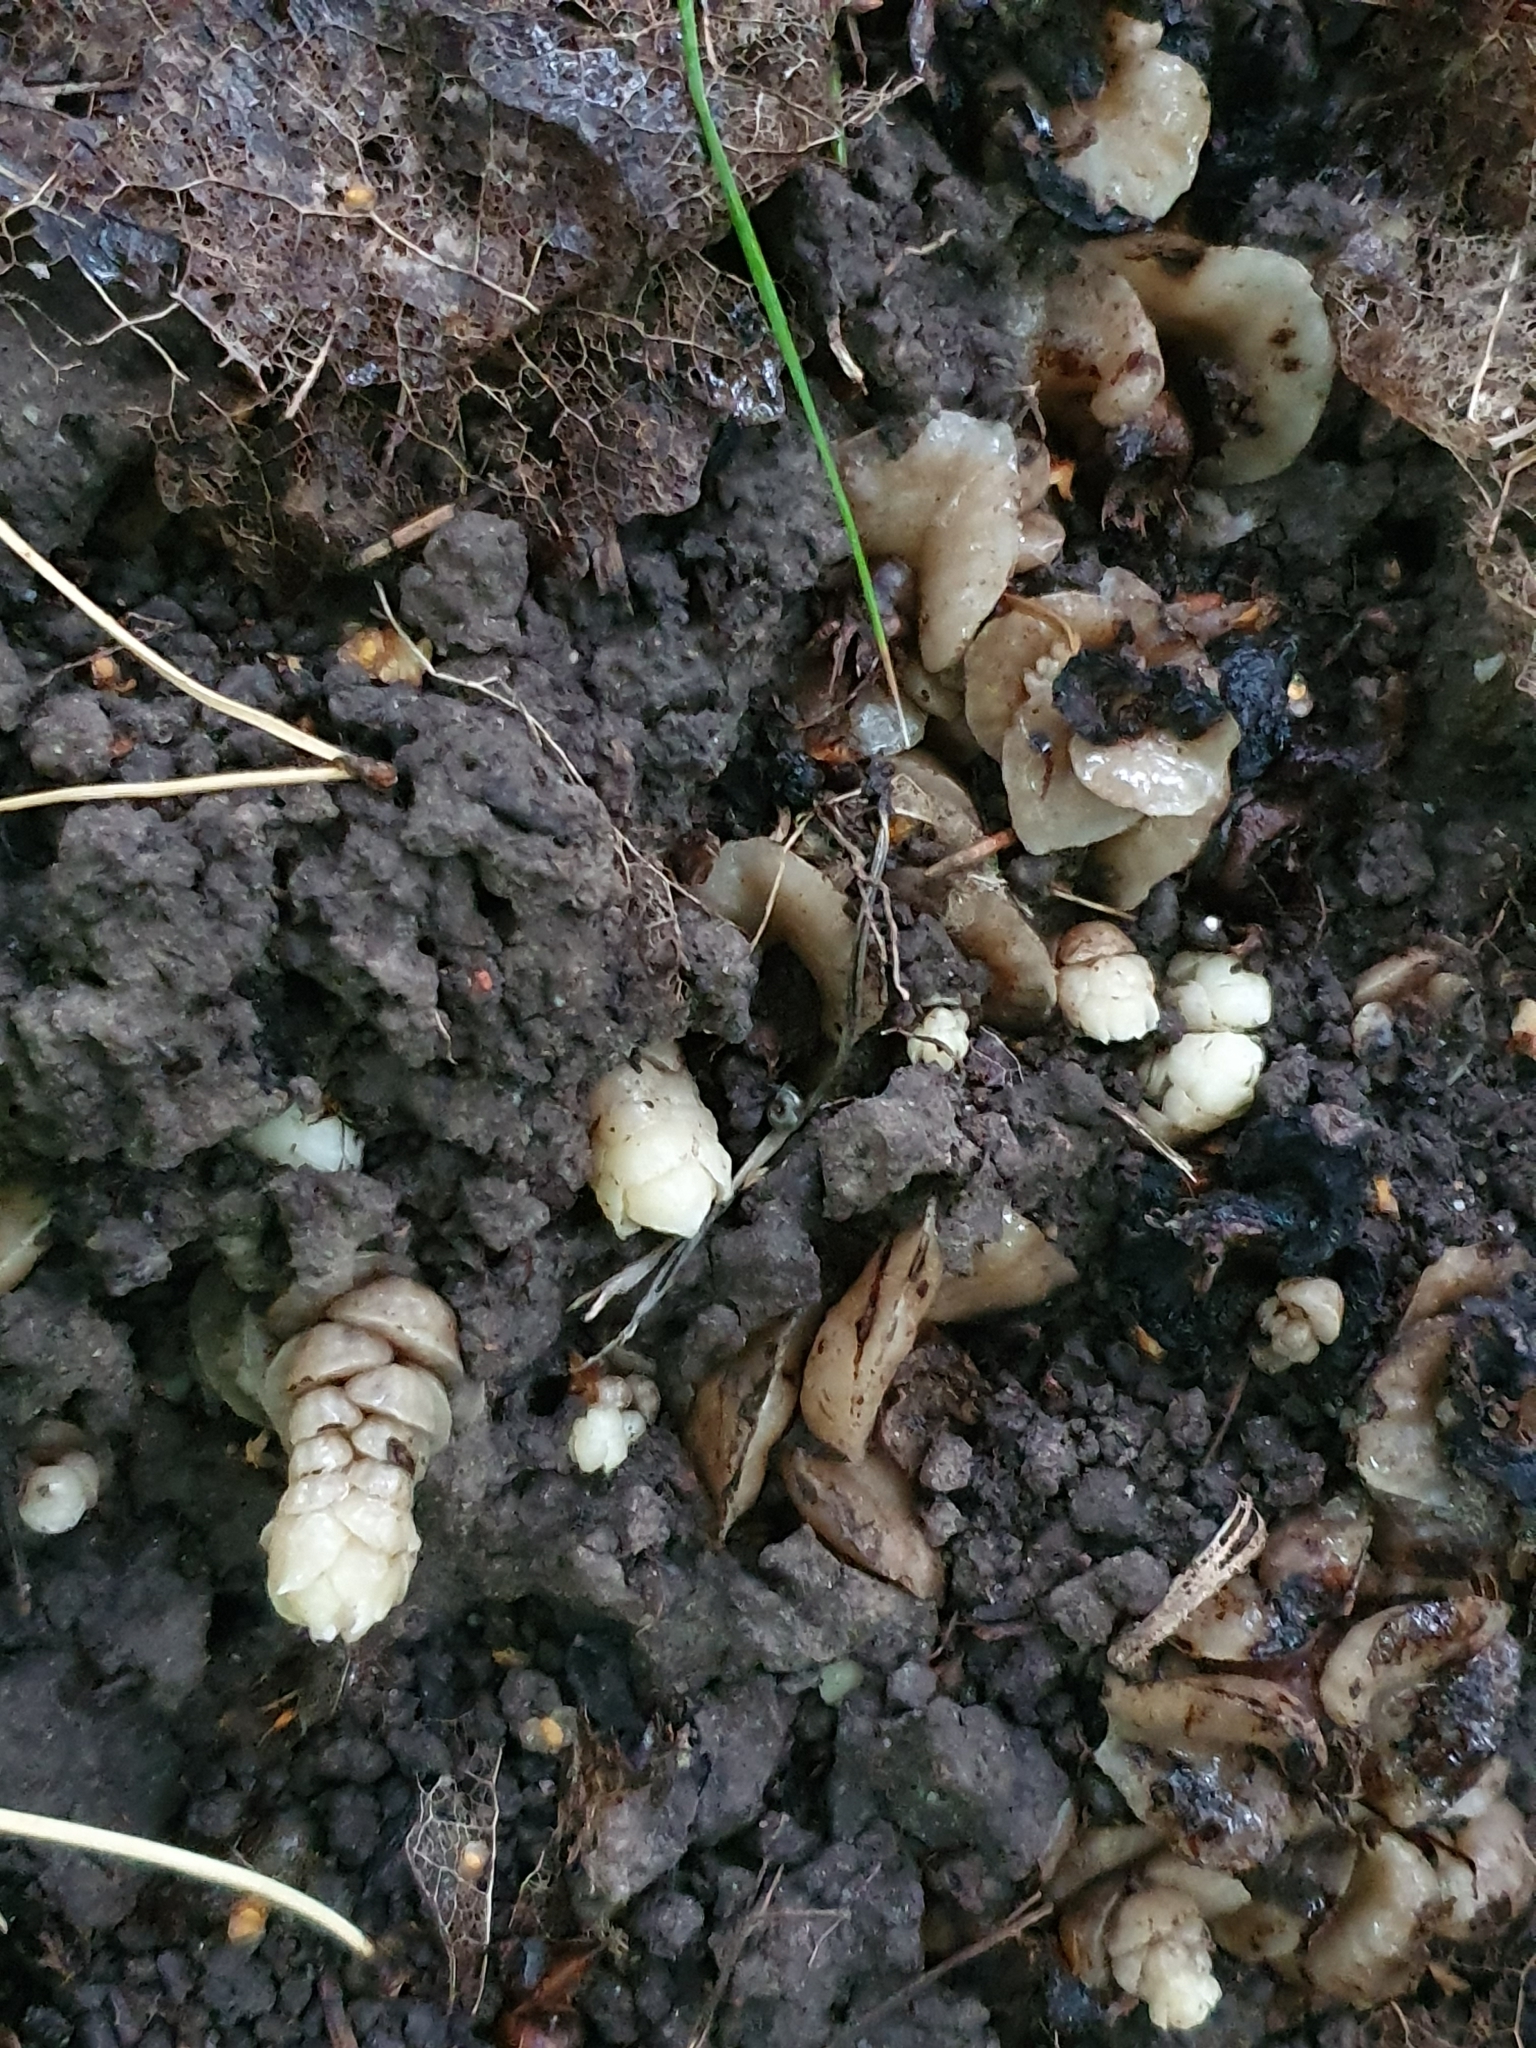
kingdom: Plantae
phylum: Tracheophyta
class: Magnoliopsida
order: Lamiales
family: Orobanchaceae
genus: Lathraea
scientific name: Lathraea squamaria
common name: Toothwort
